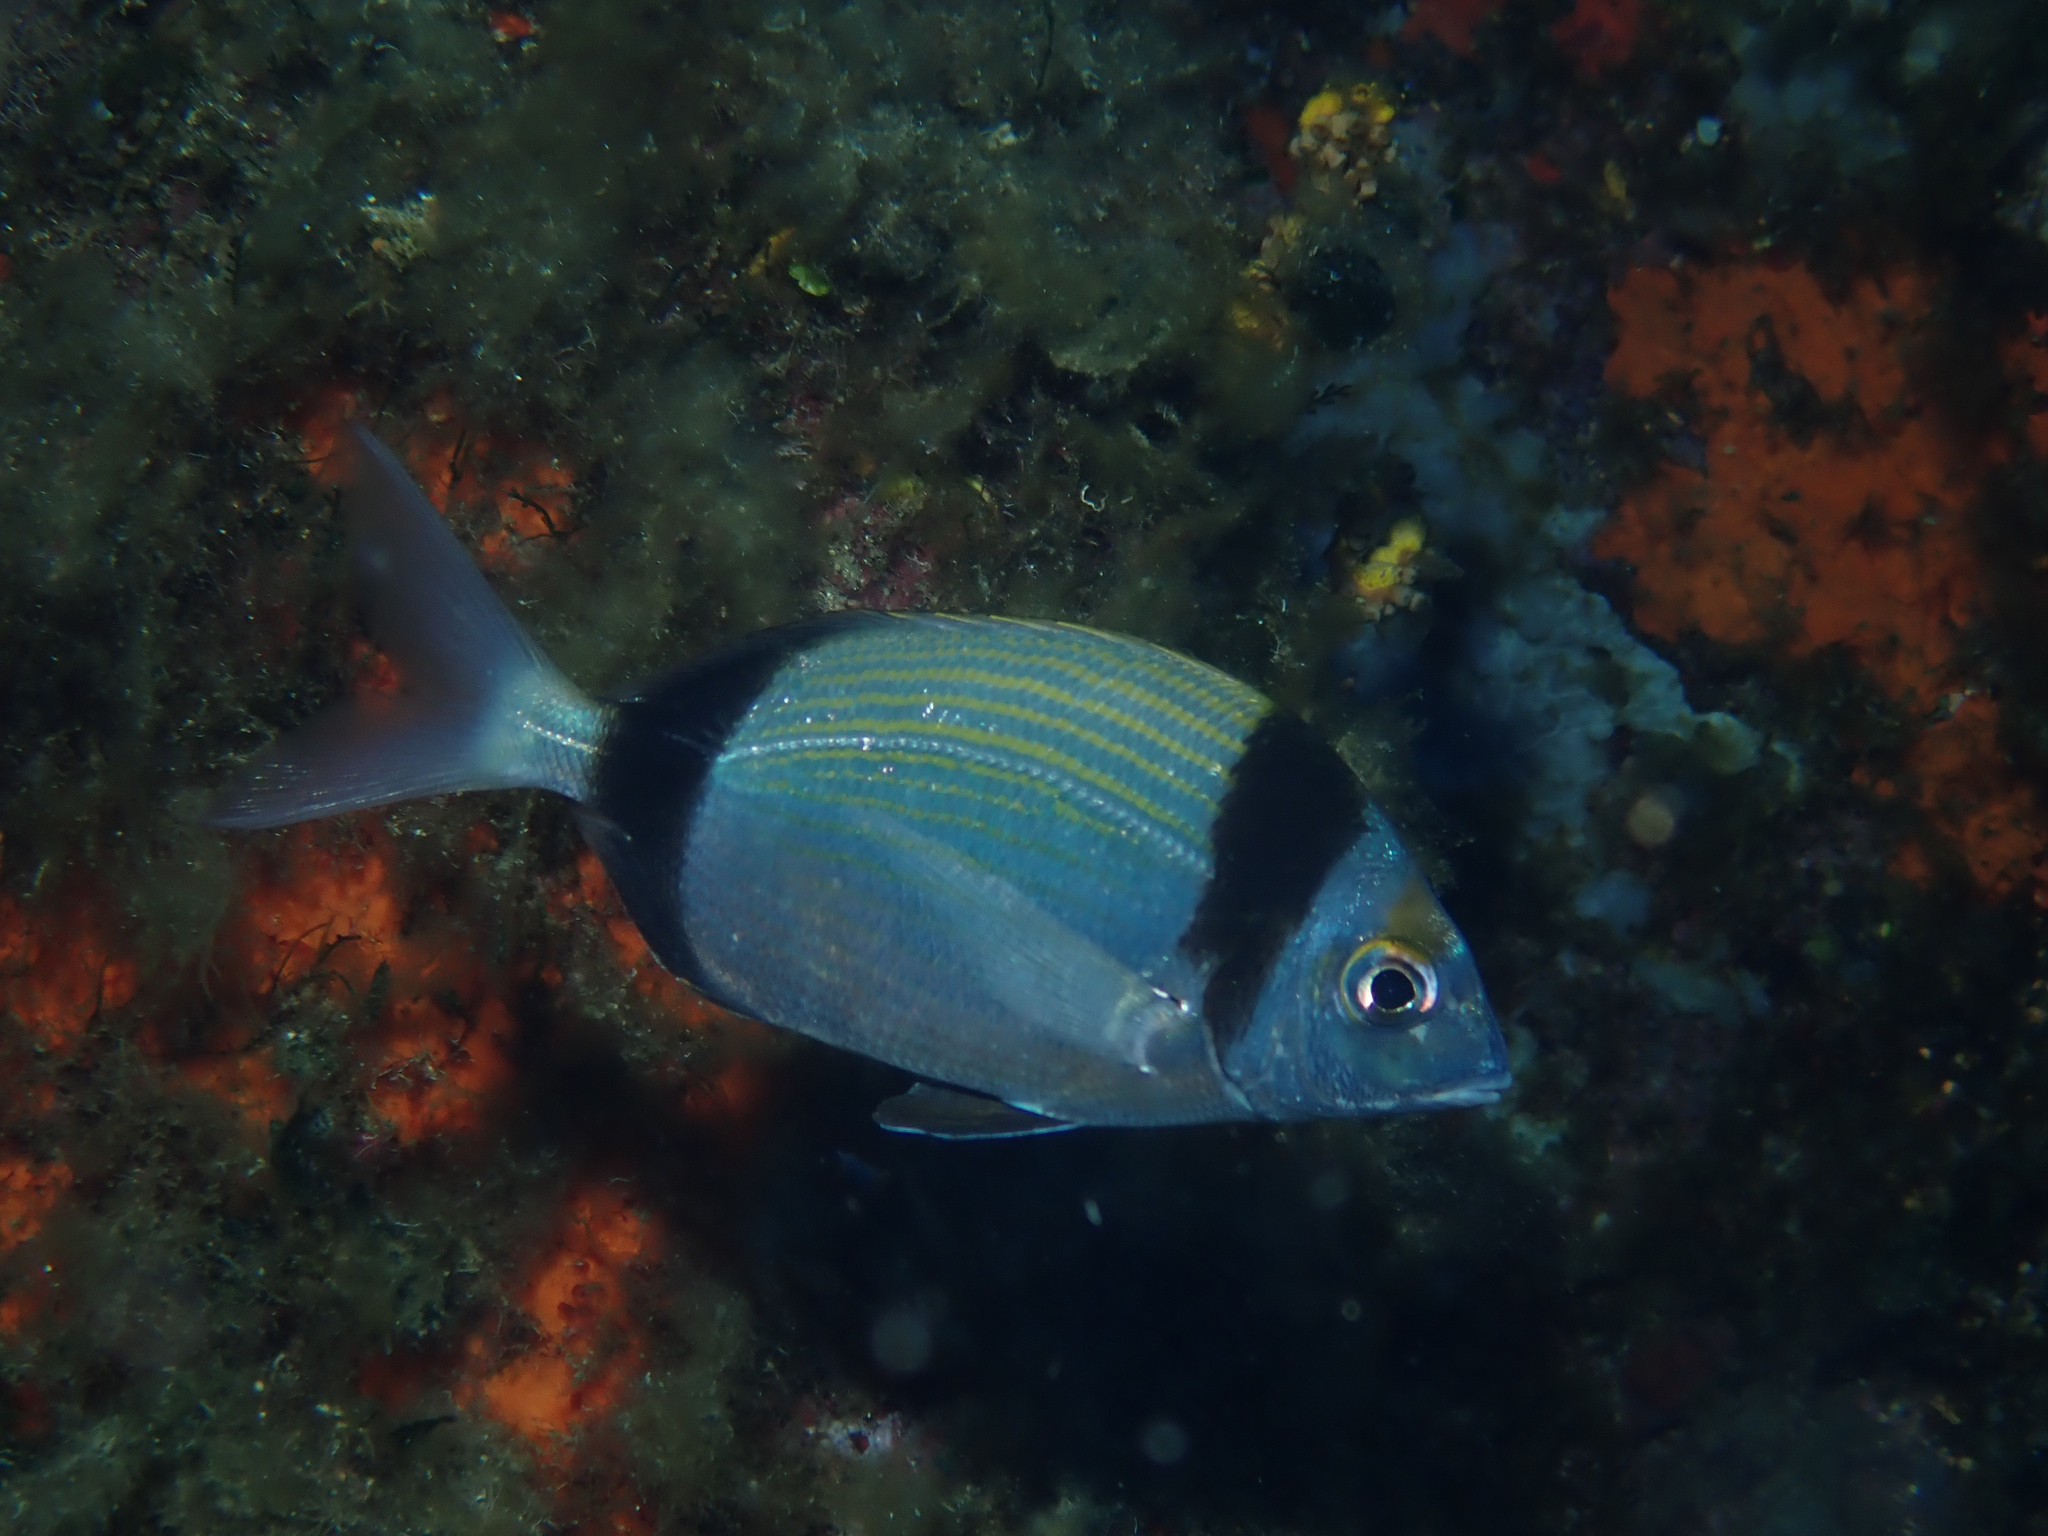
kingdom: Animalia
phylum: Chordata
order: Perciformes
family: Sparidae
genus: Diplodus
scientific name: Diplodus vulgaris
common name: Common two-banded seabream
